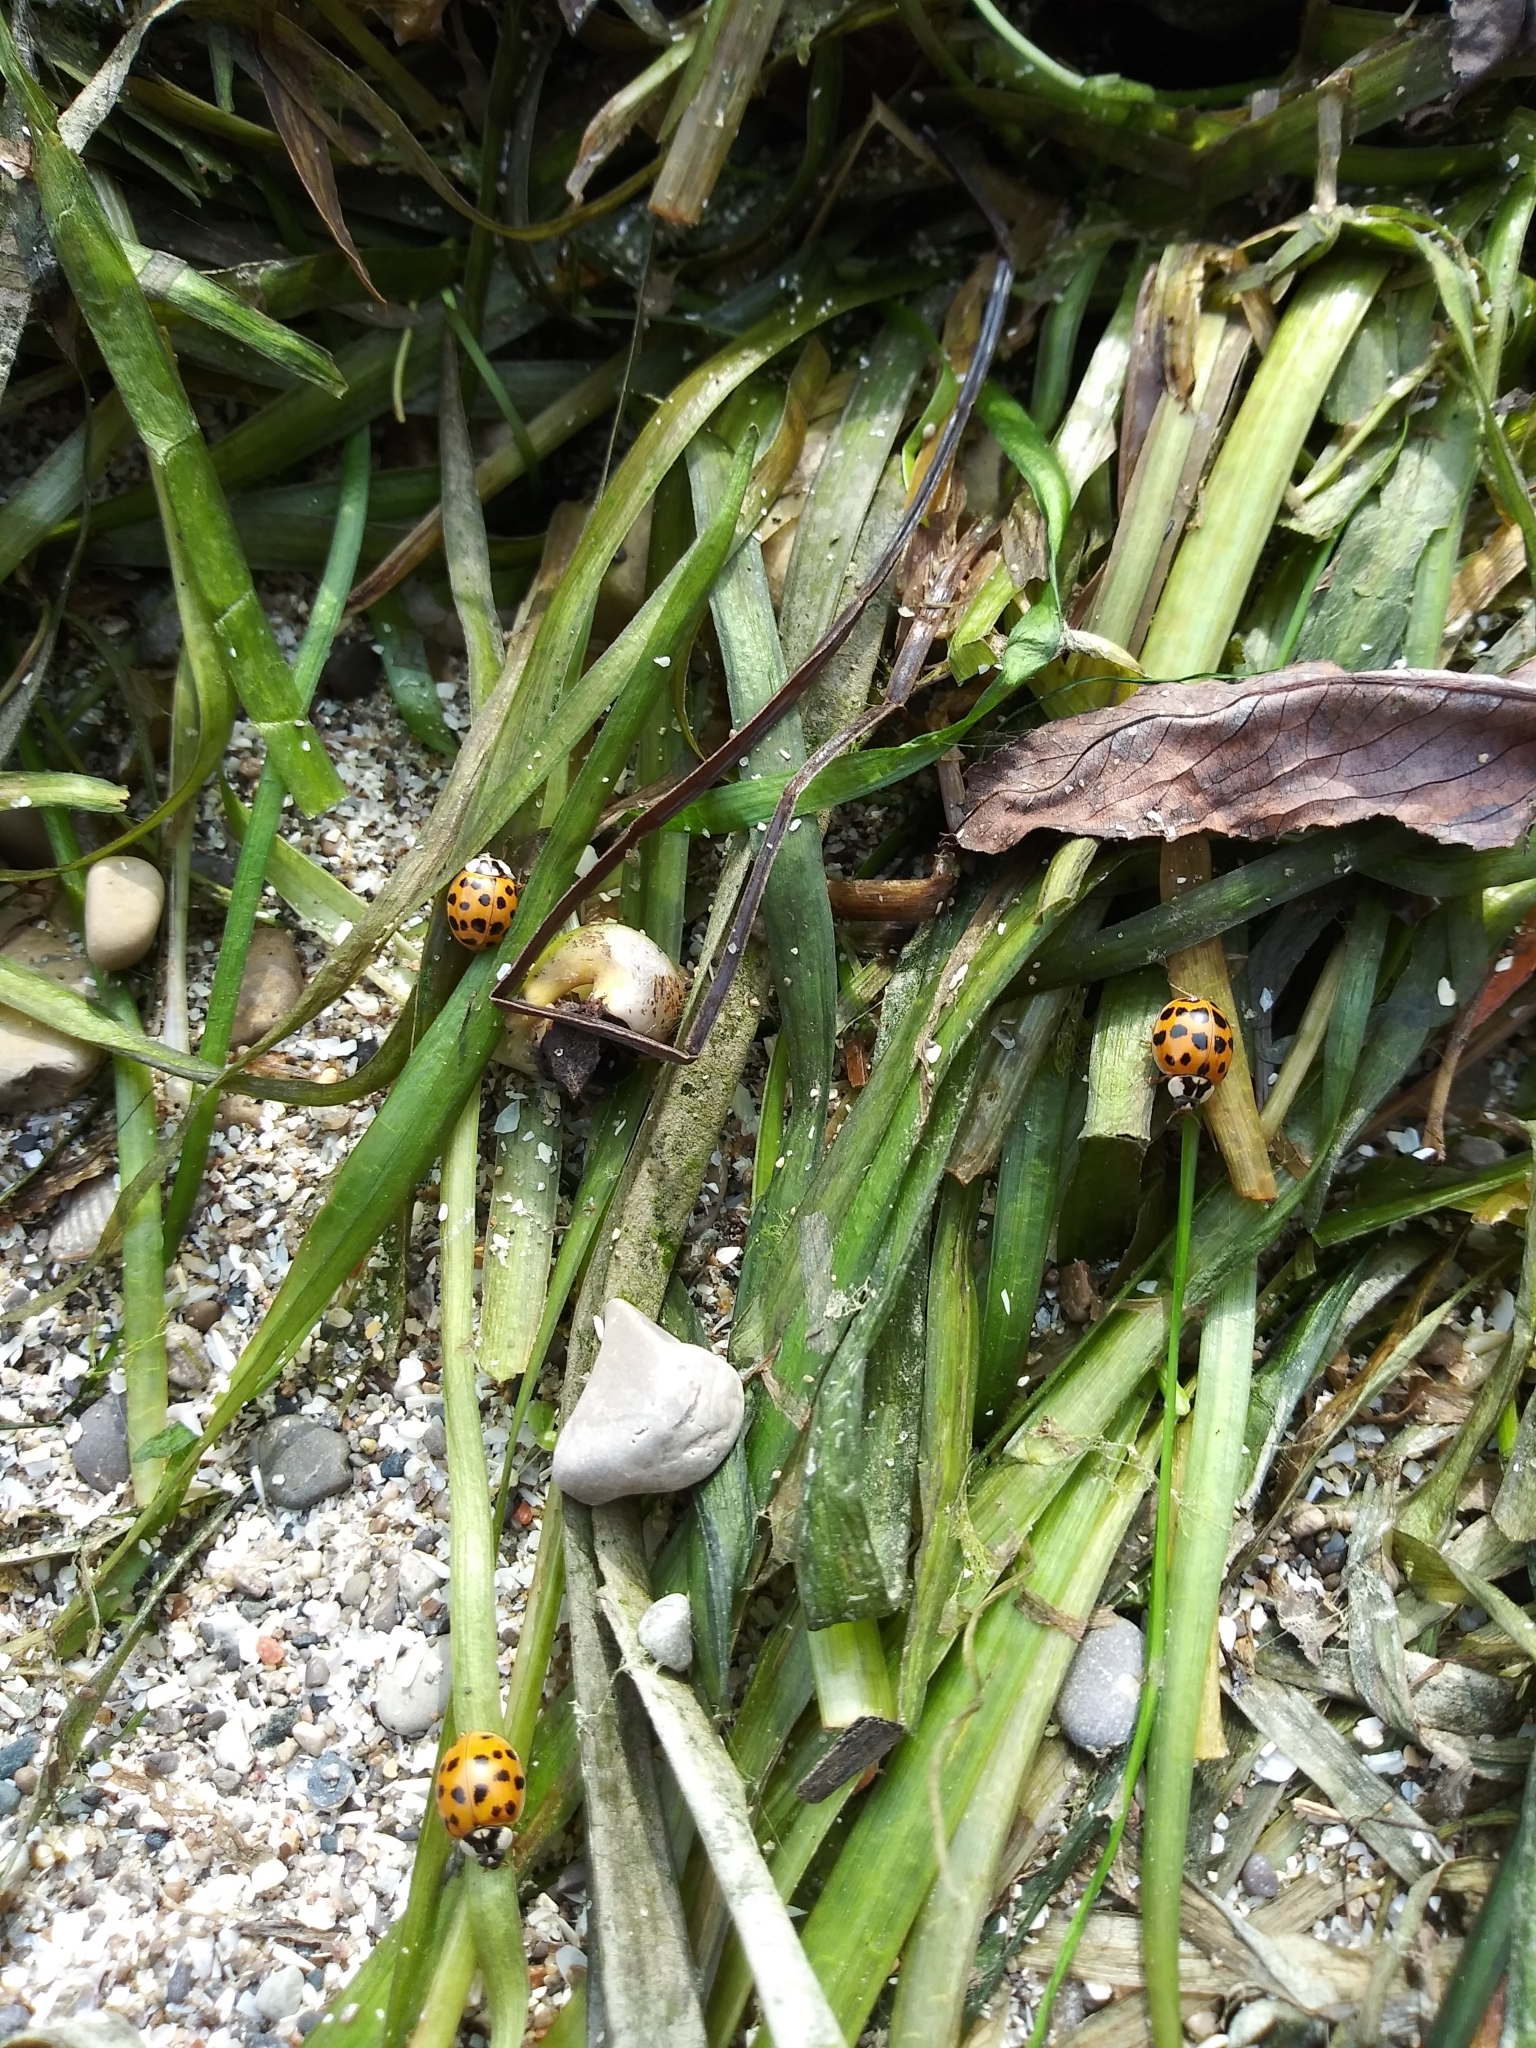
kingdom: Animalia
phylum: Arthropoda
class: Insecta
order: Coleoptera
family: Coccinellidae
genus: Harmonia
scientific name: Harmonia axyridis
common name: Harlequin ladybird
